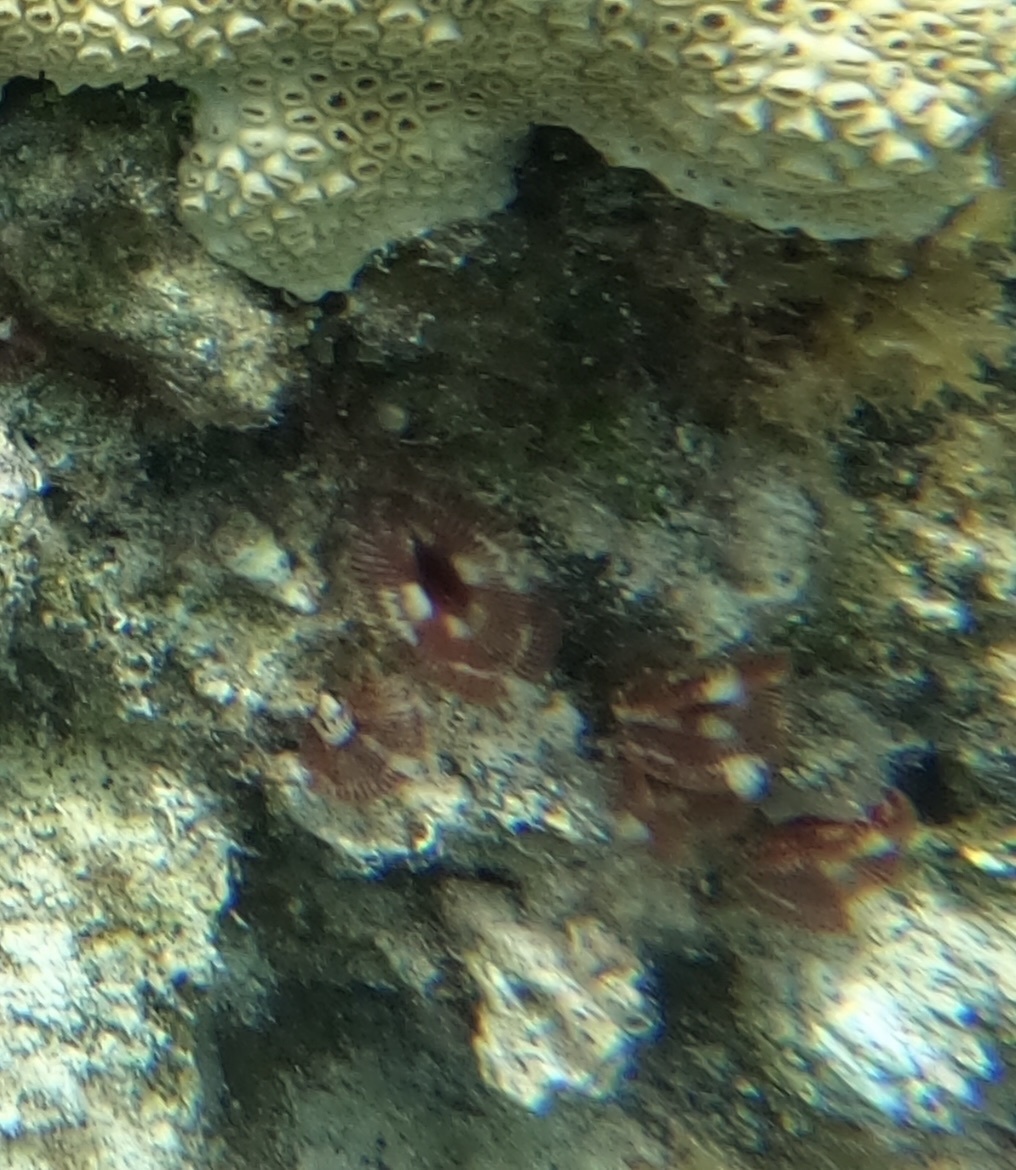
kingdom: Animalia
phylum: Annelida
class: Polychaeta
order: Sabellida
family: Sabellidae
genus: Anamobaea
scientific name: Anamobaea orstedii
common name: Split-crown feather duster
